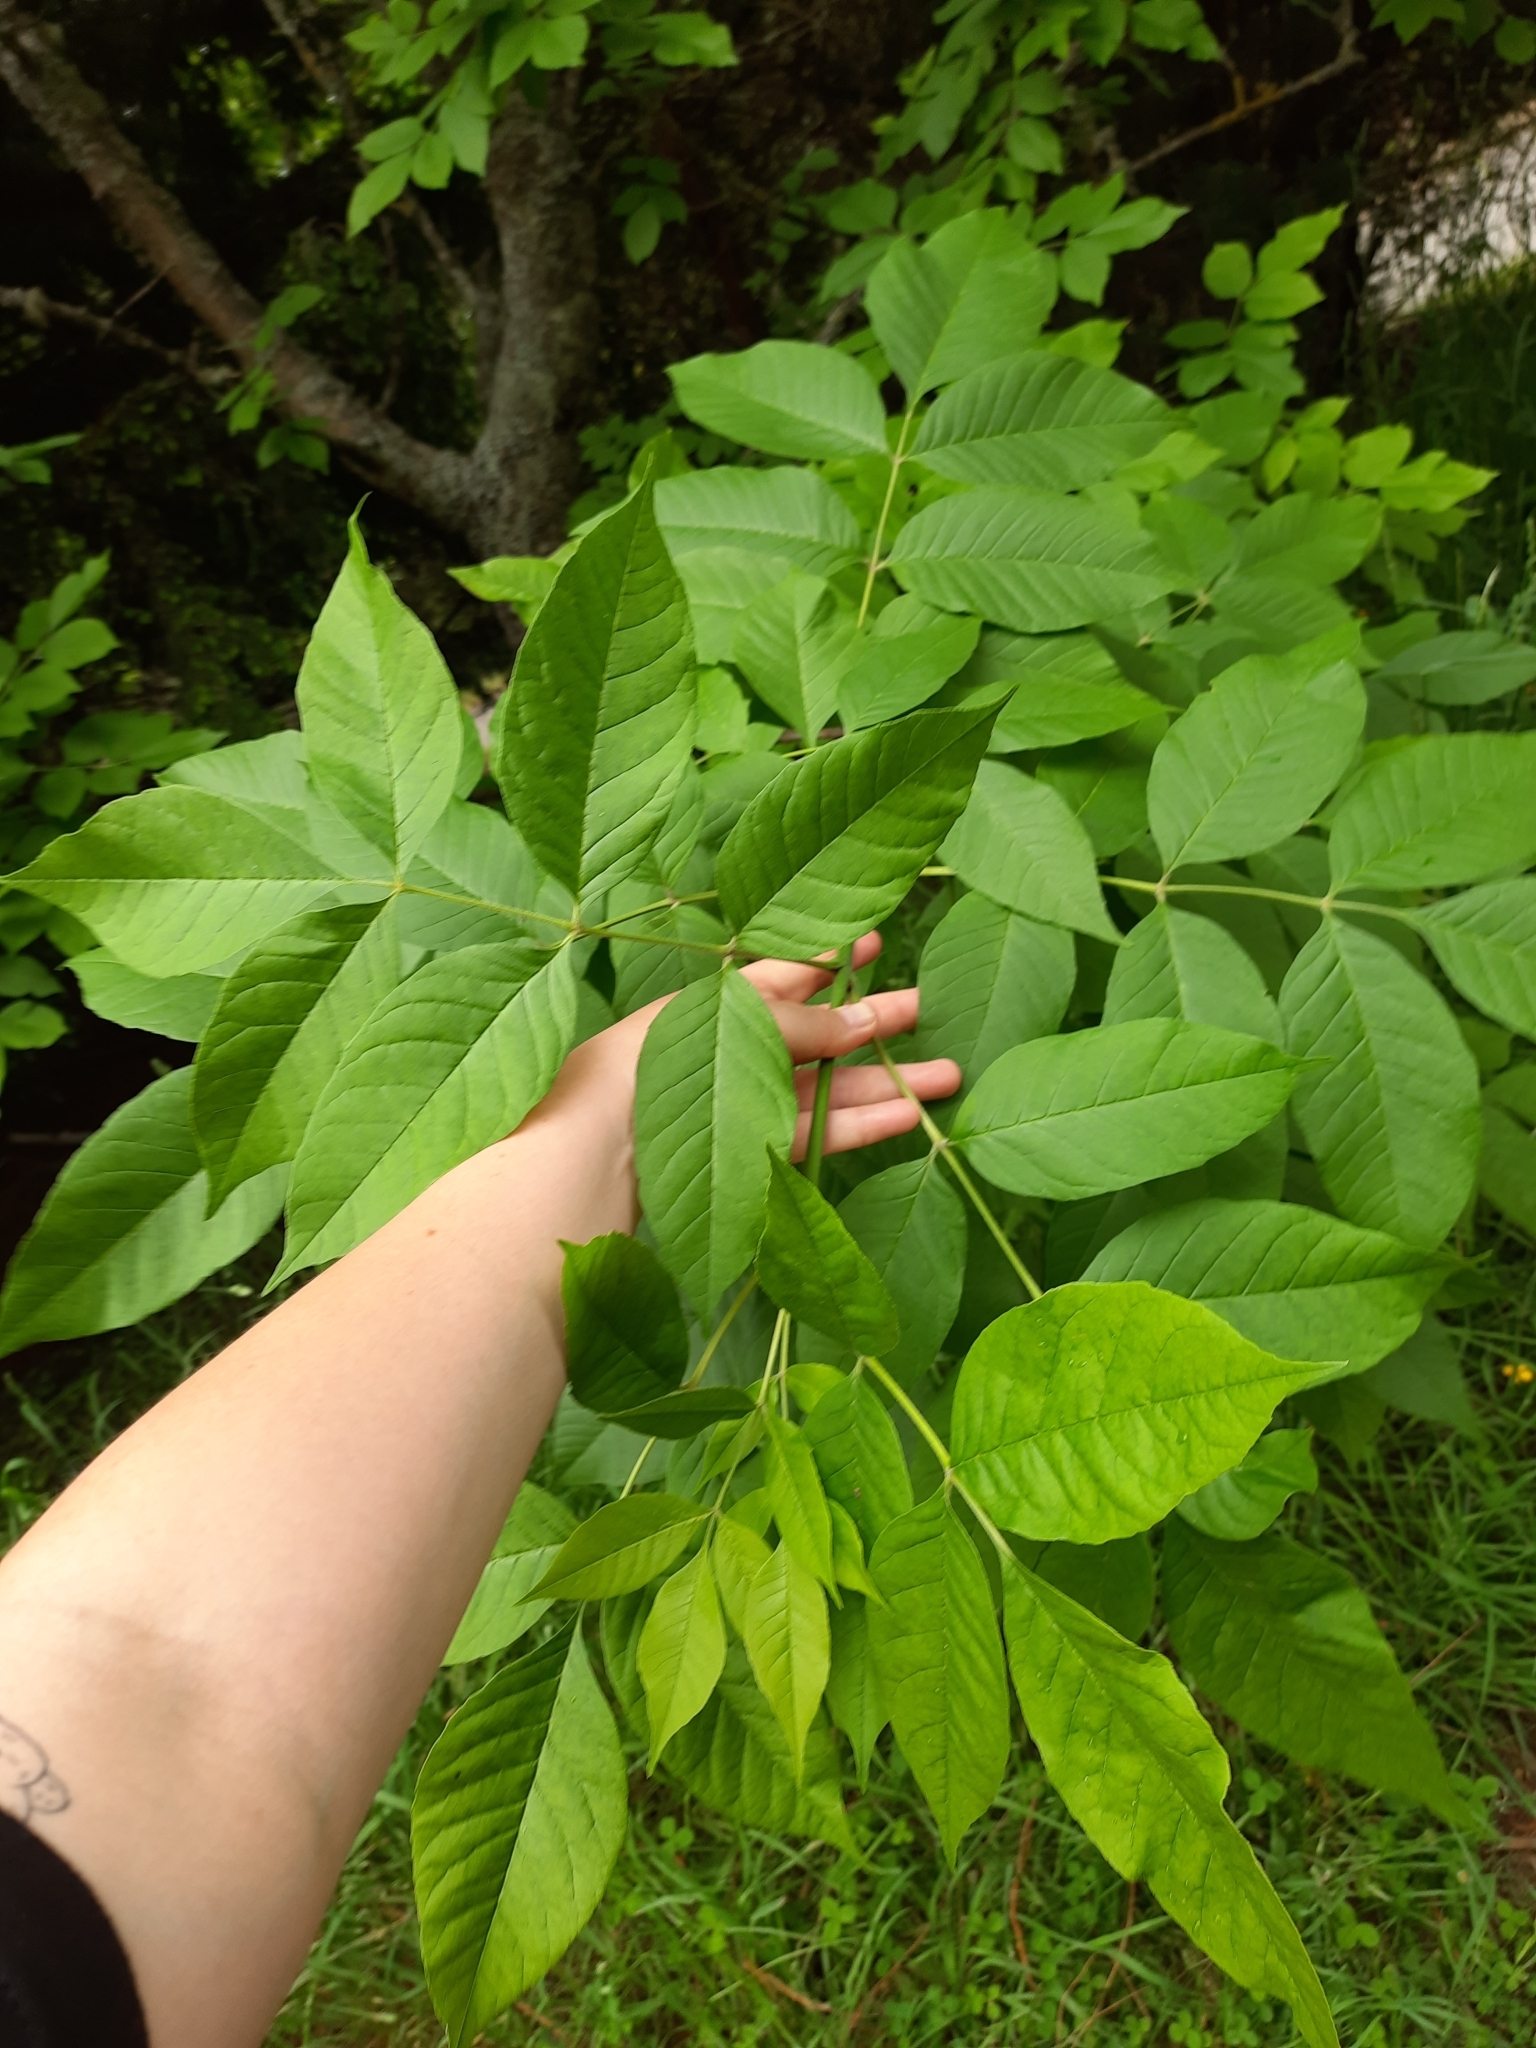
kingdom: Plantae
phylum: Tracheophyta
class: Magnoliopsida
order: Lamiales
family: Oleaceae
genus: Fraxinus
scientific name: Fraxinus excelsior
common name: European ash
